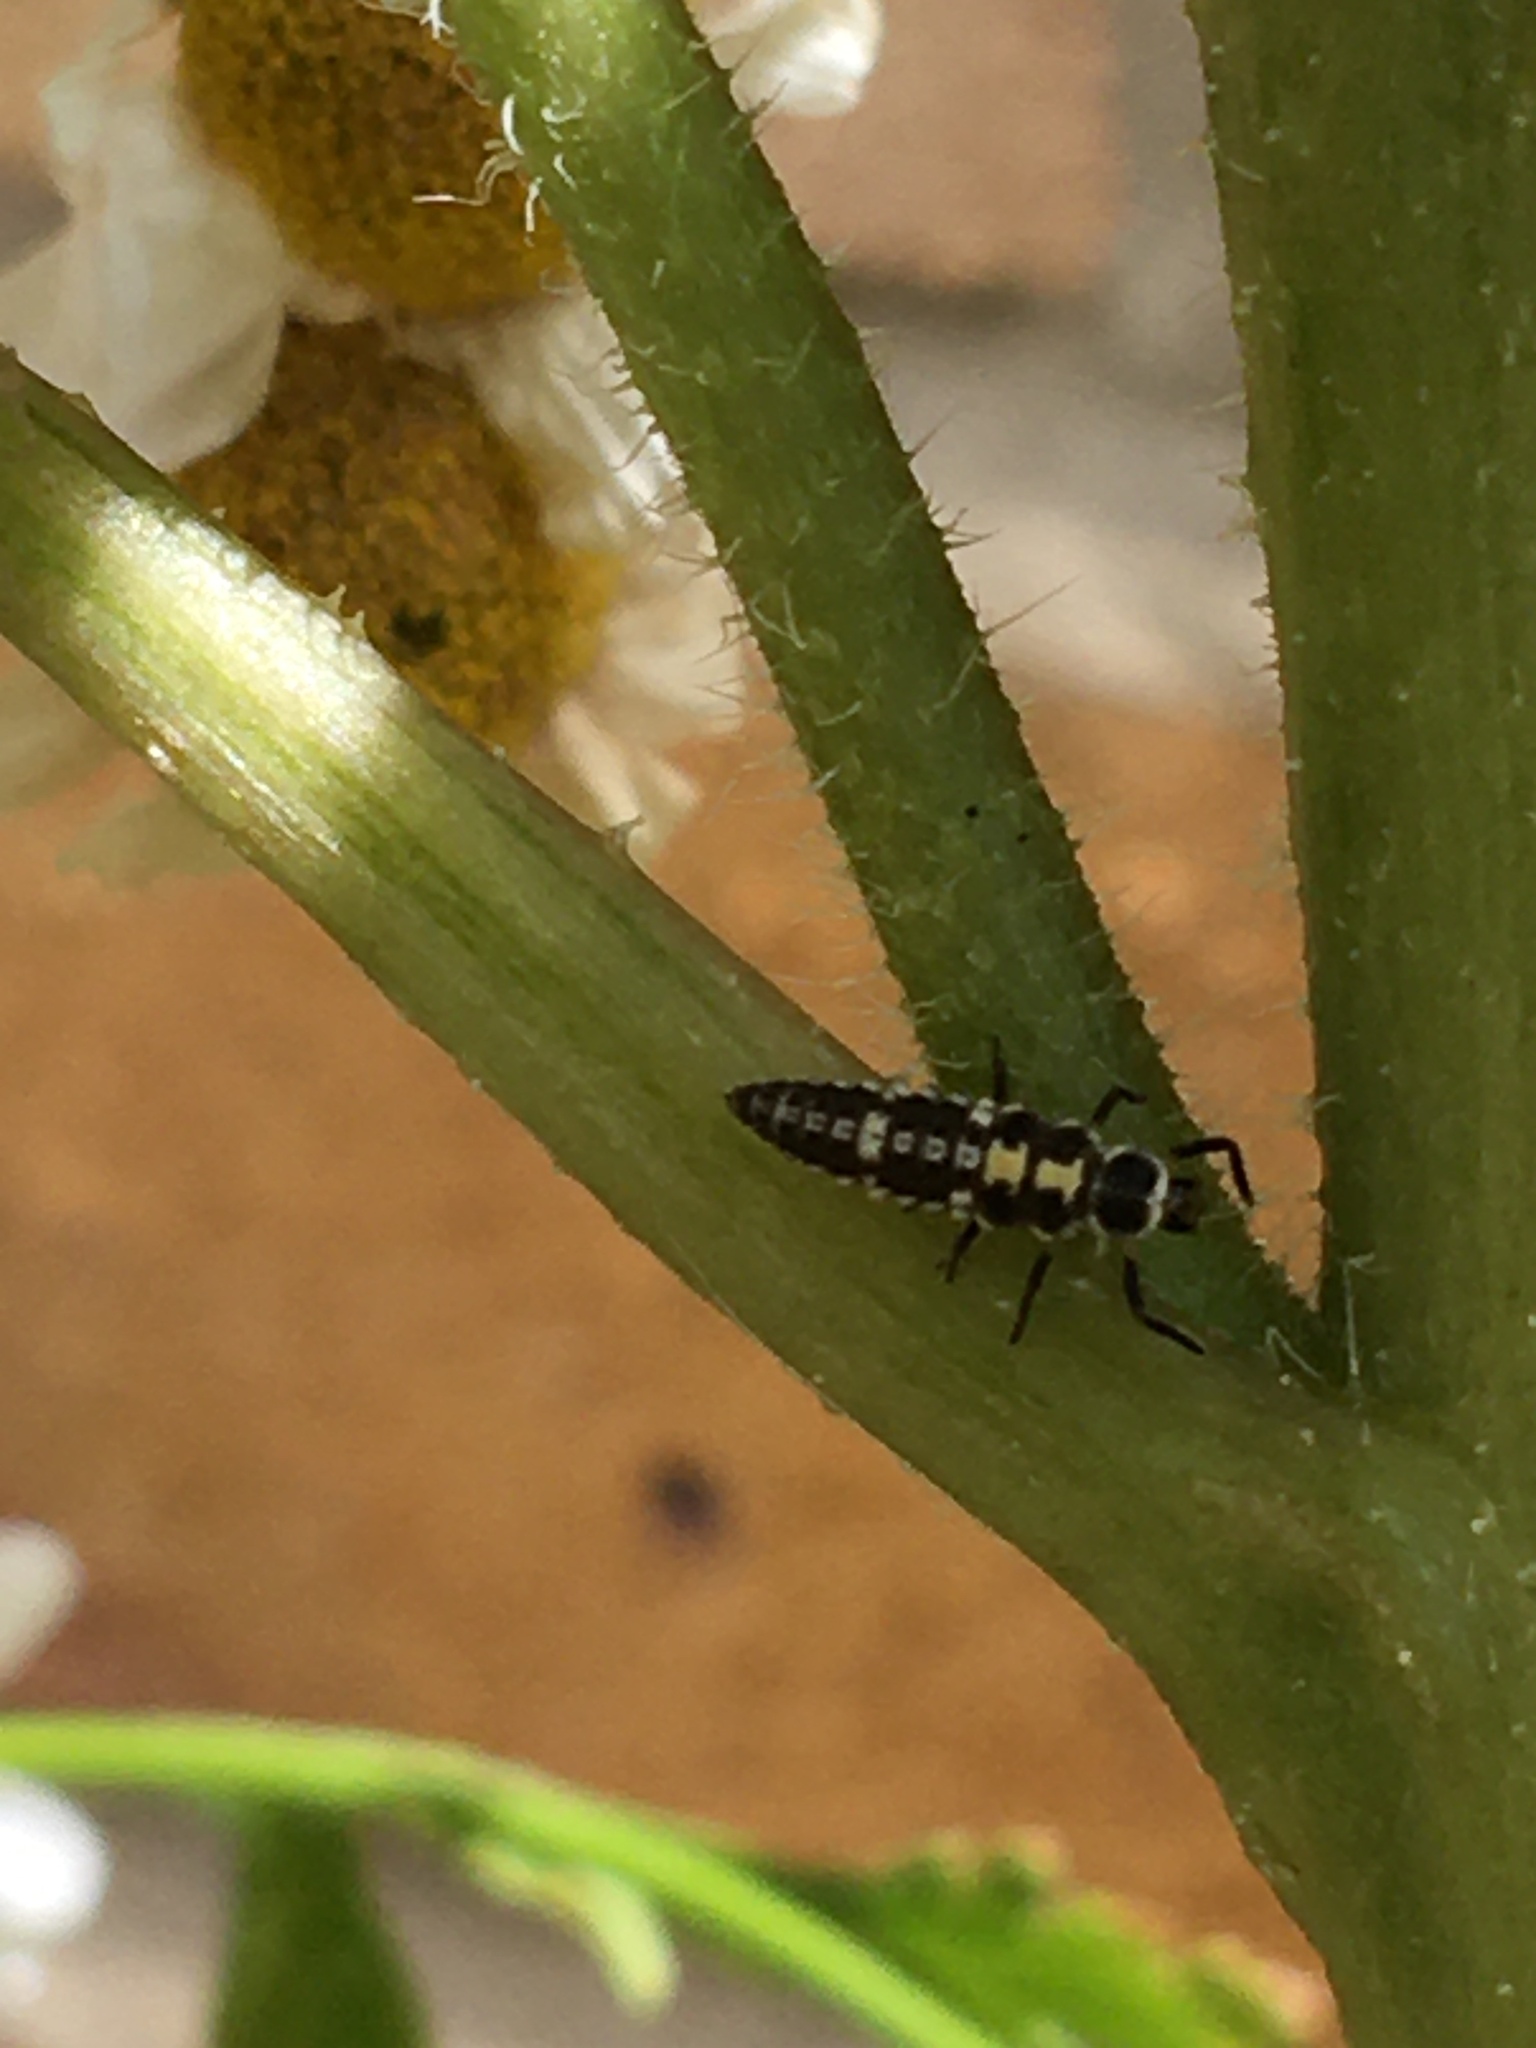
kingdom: Animalia
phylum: Arthropoda
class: Insecta
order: Coleoptera
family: Coccinellidae
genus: Propylaea
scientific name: Propylaea quatuordecimpunctata
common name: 14-spotted ladybird beetle
